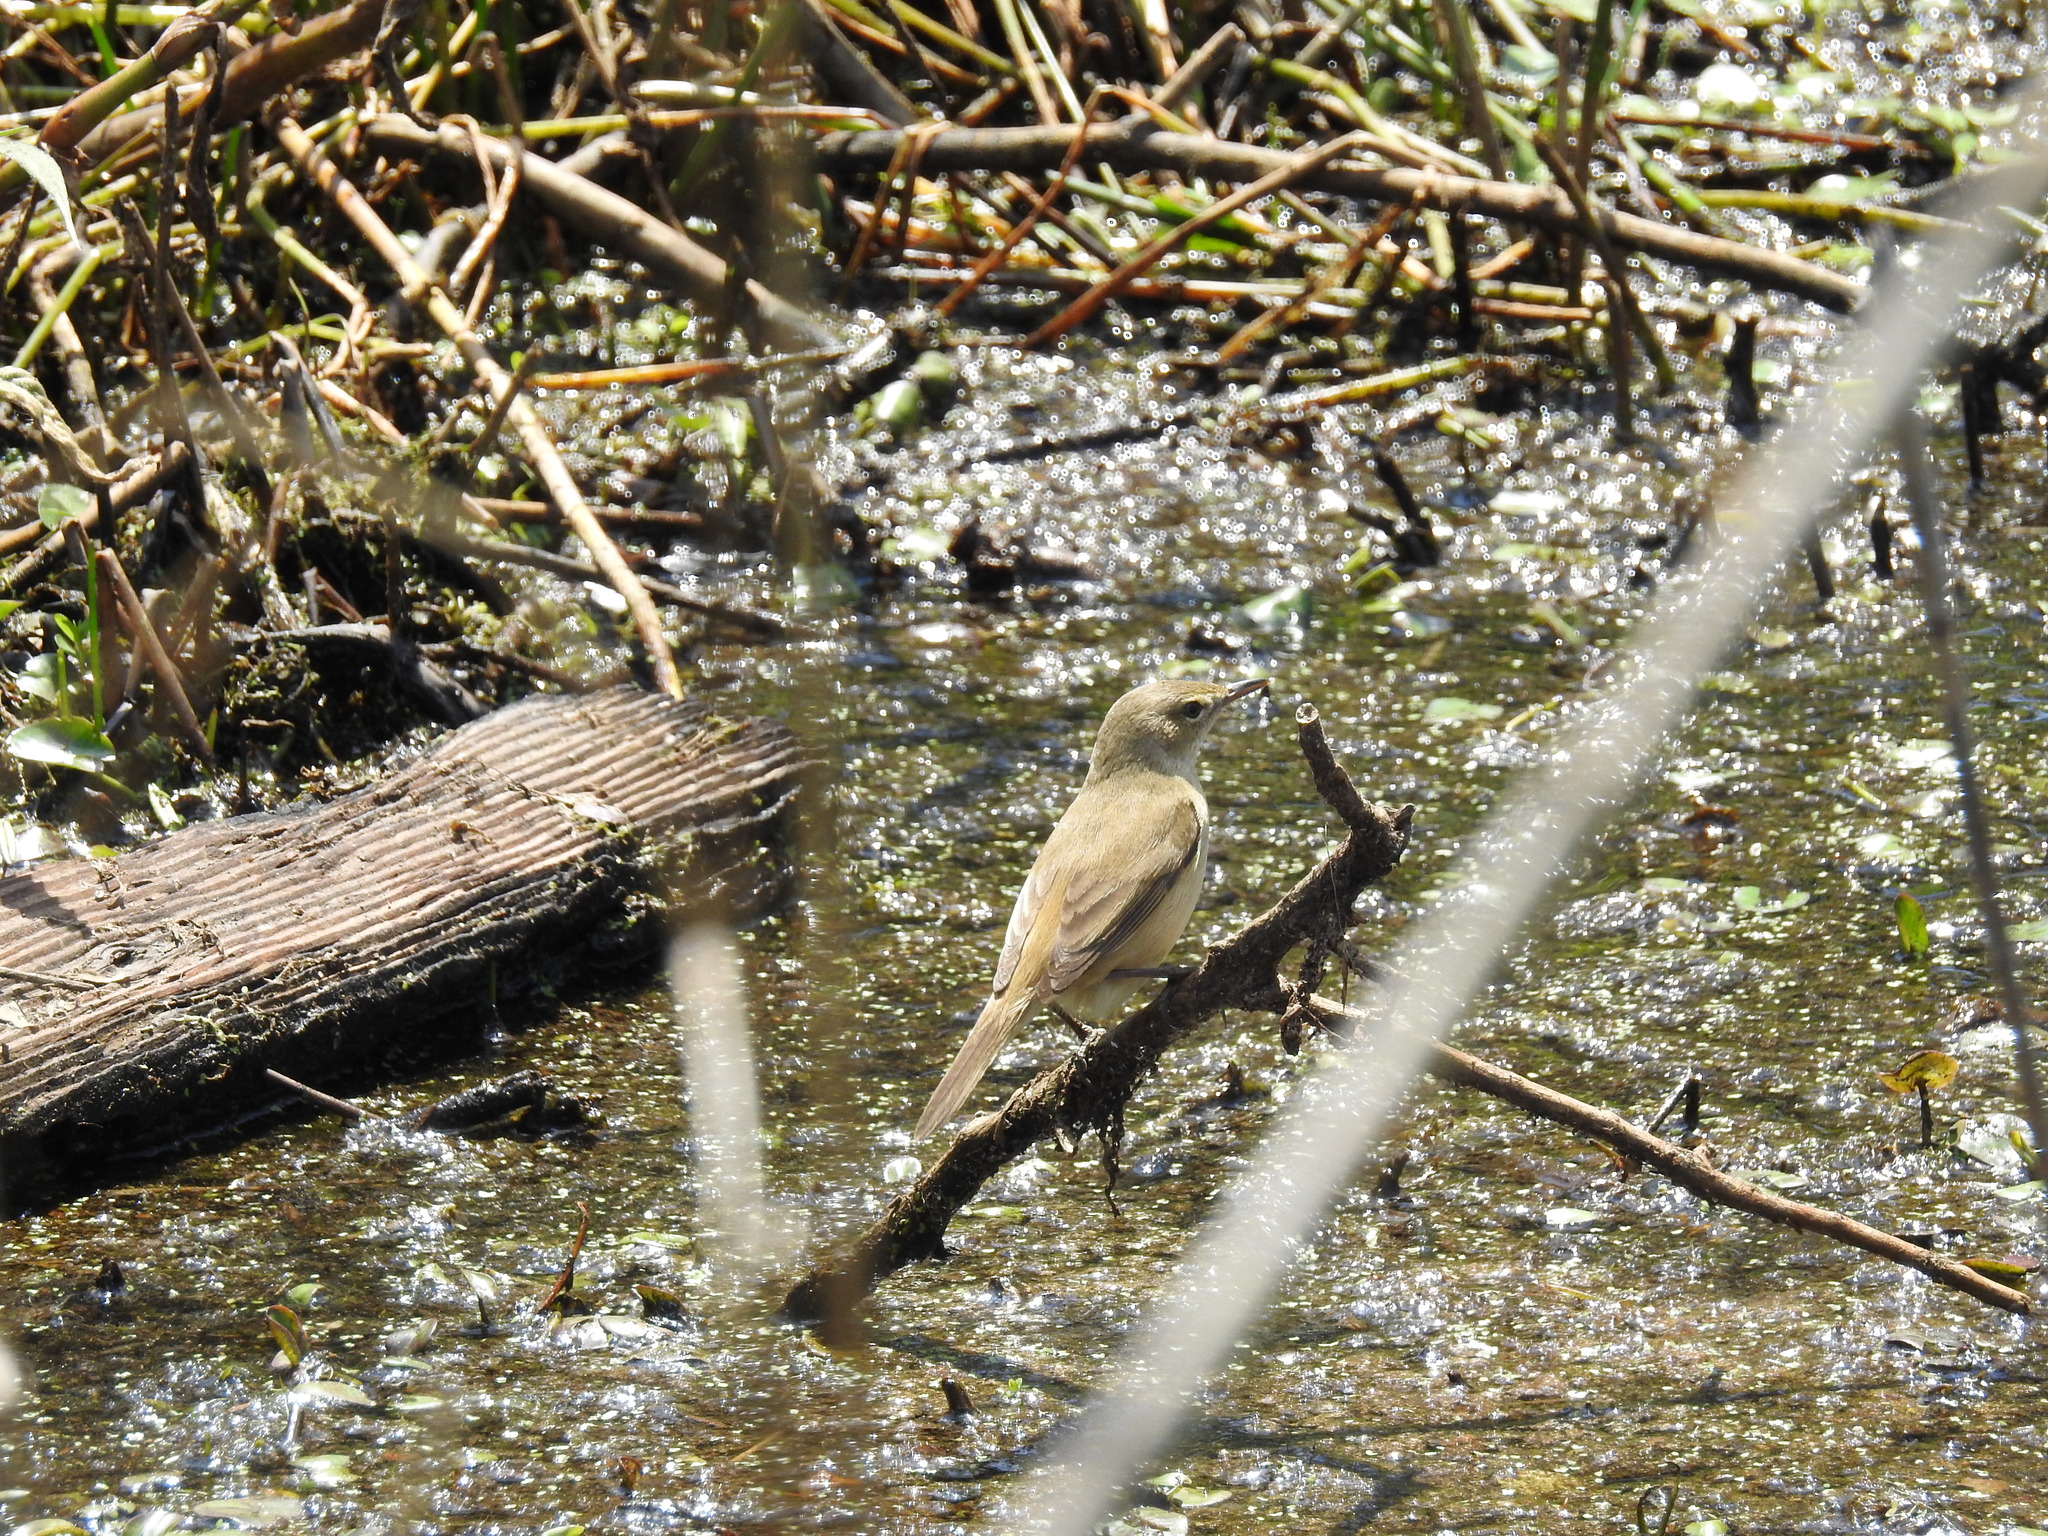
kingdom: Animalia
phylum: Chordata
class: Aves
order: Passeriformes
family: Acrocephalidae
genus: Acrocephalus
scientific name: Acrocephalus australis
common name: Australian reed warbler
